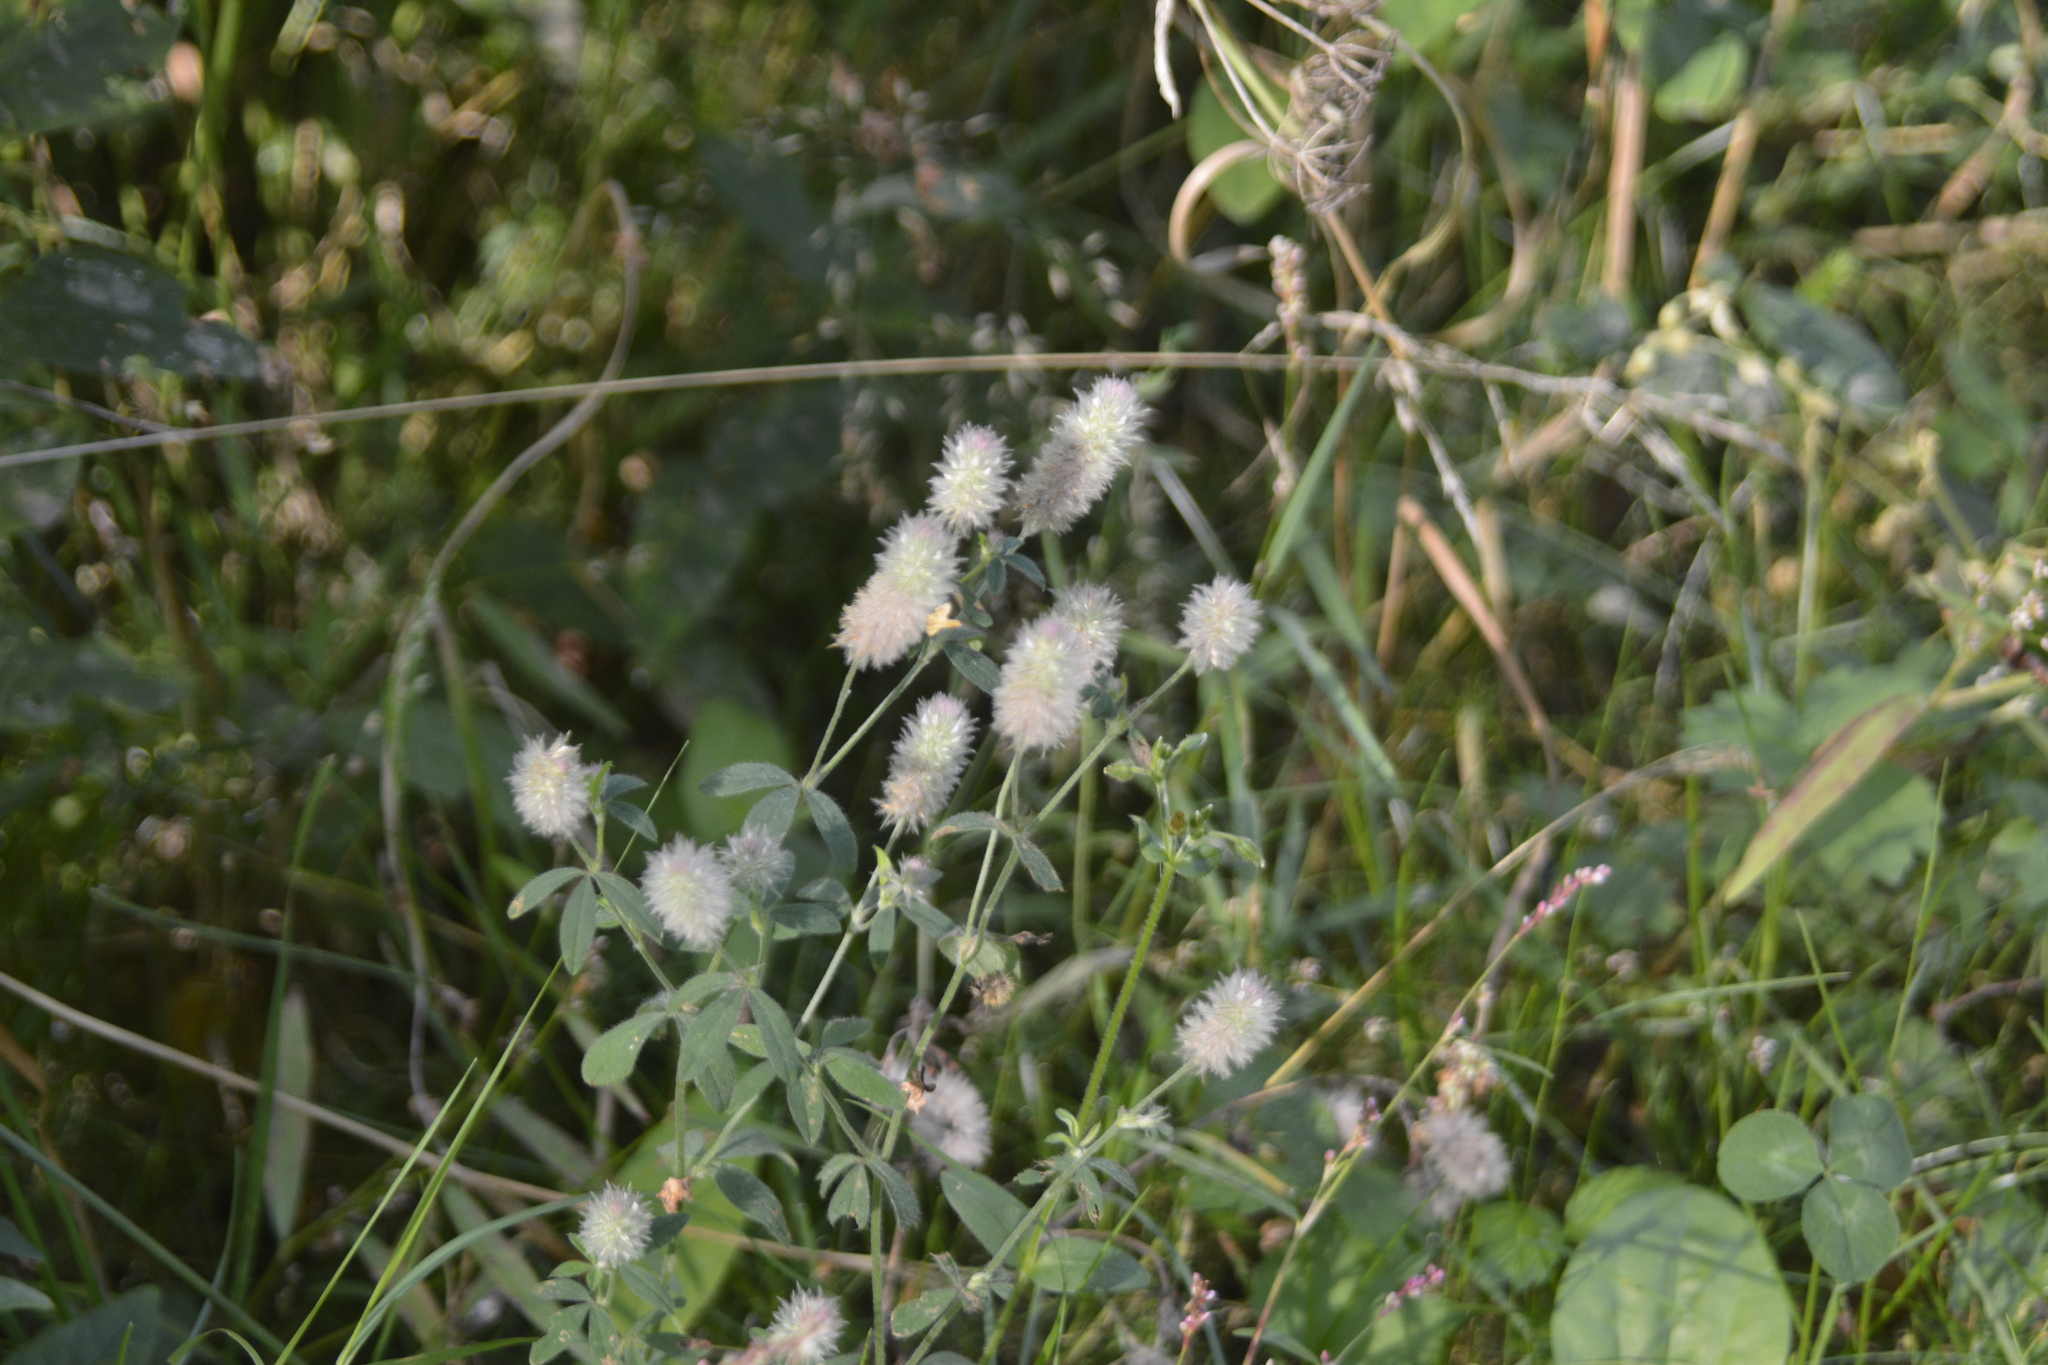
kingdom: Plantae
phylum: Tracheophyta
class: Magnoliopsida
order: Fabales
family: Fabaceae
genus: Trifolium
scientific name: Trifolium arvense
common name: Hare's-foot clover
